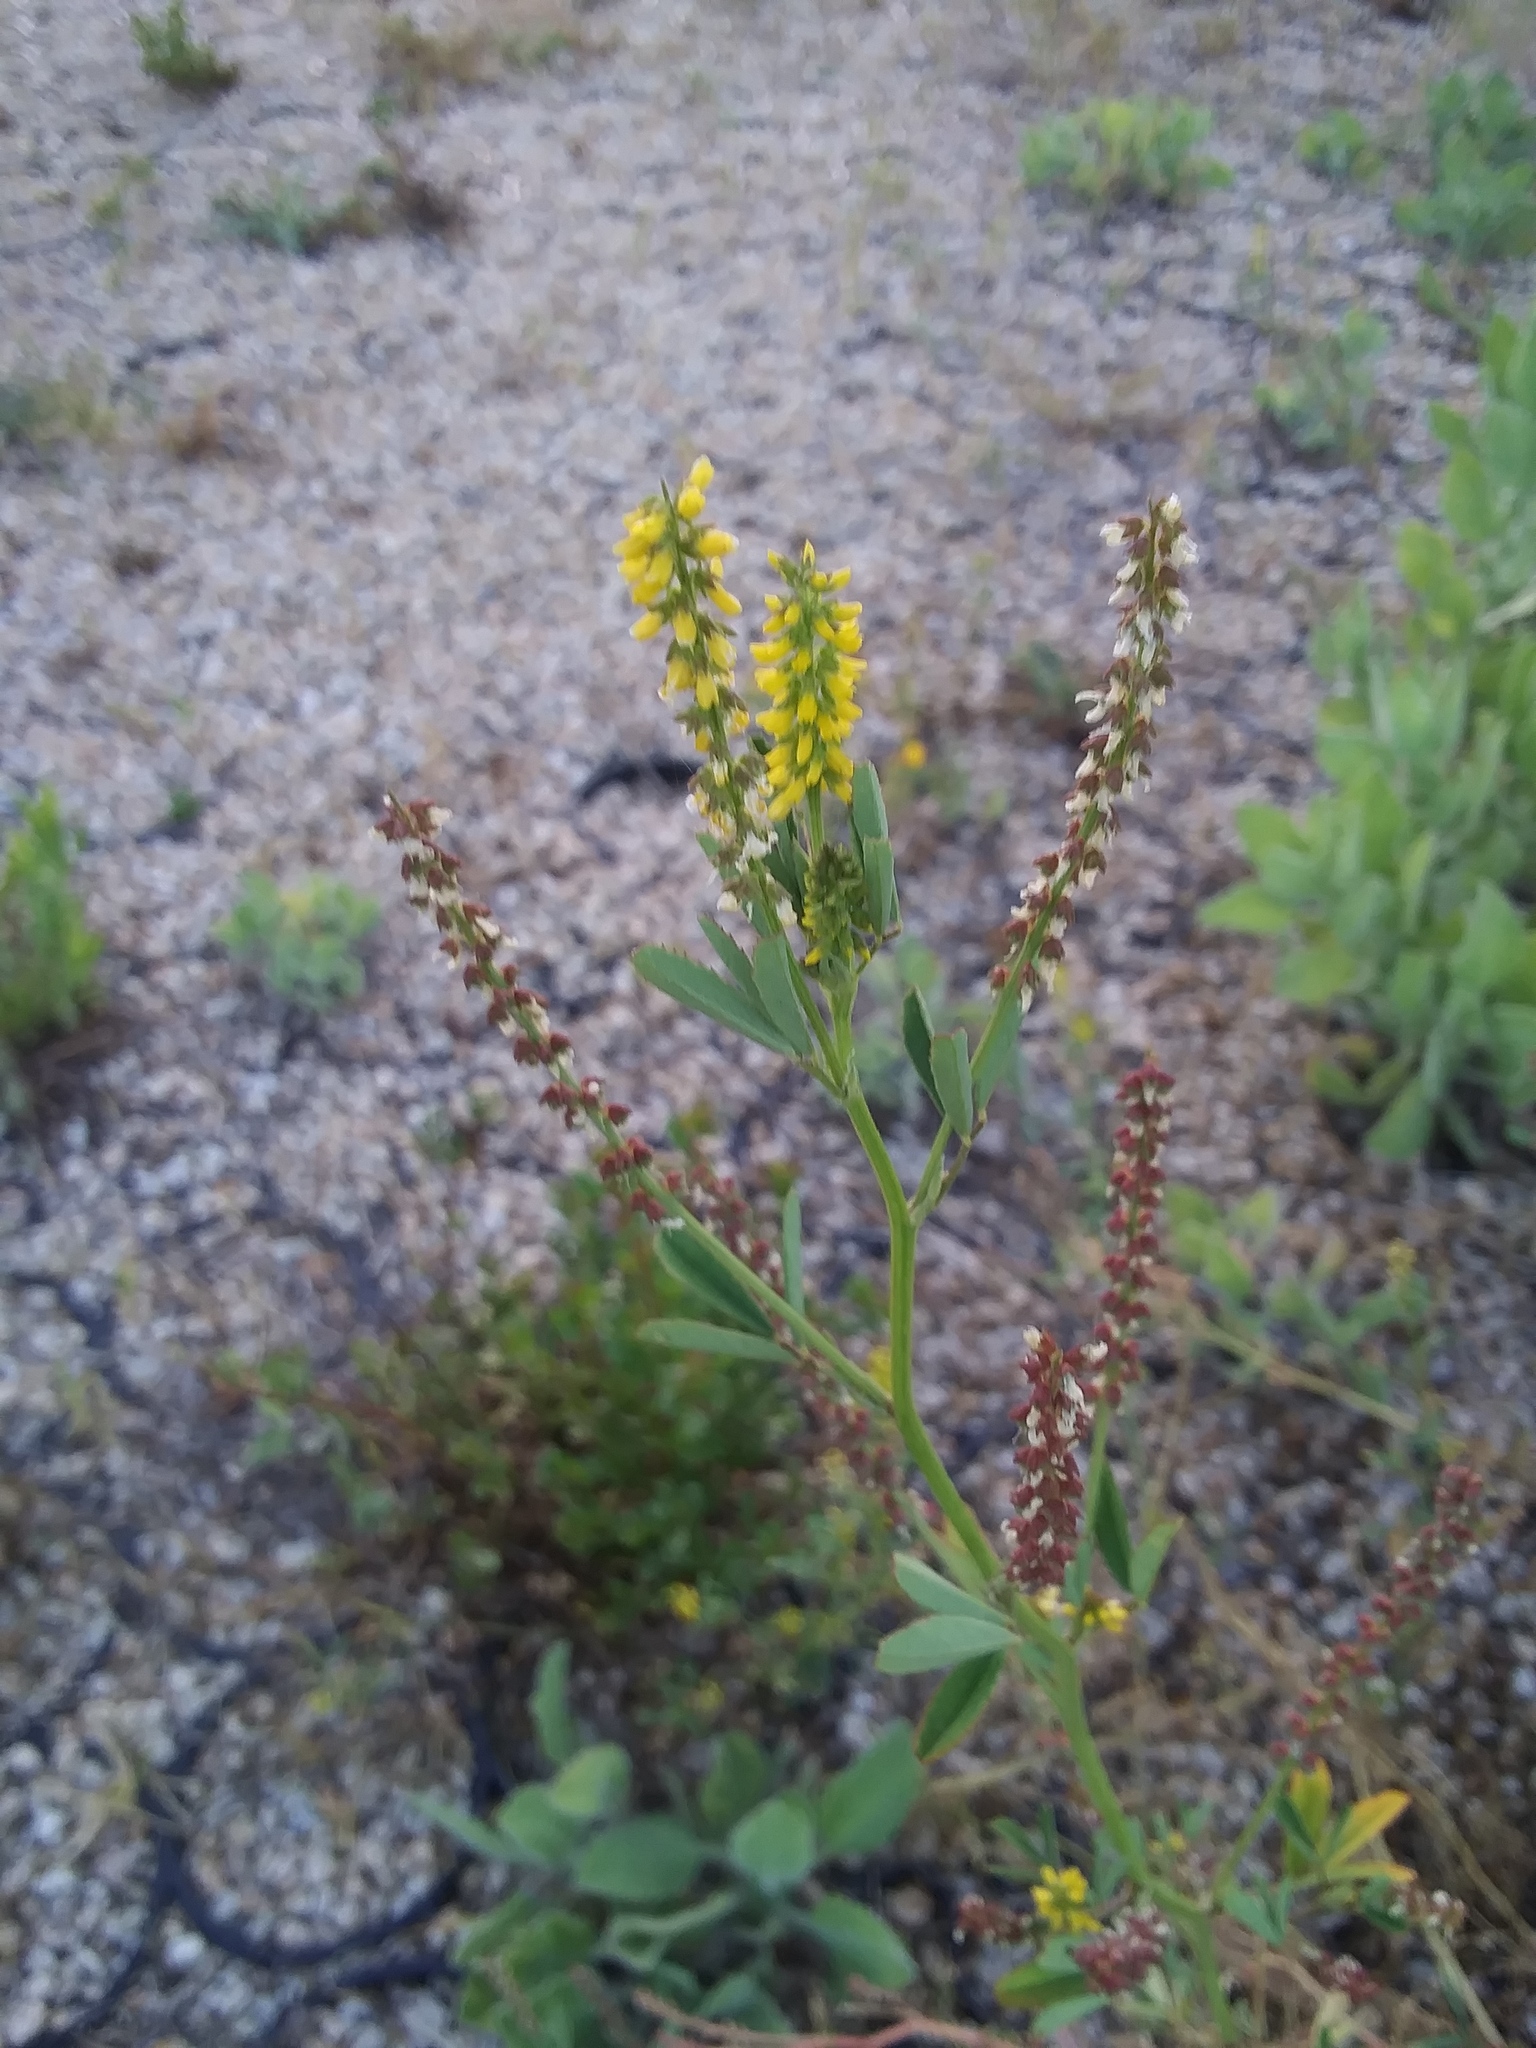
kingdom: Plantae
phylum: Tracheophyta
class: Magnoliopsida
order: Fabales
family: Fabaceae
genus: Melilotus
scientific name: Melilotus indicus
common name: Small melilot
